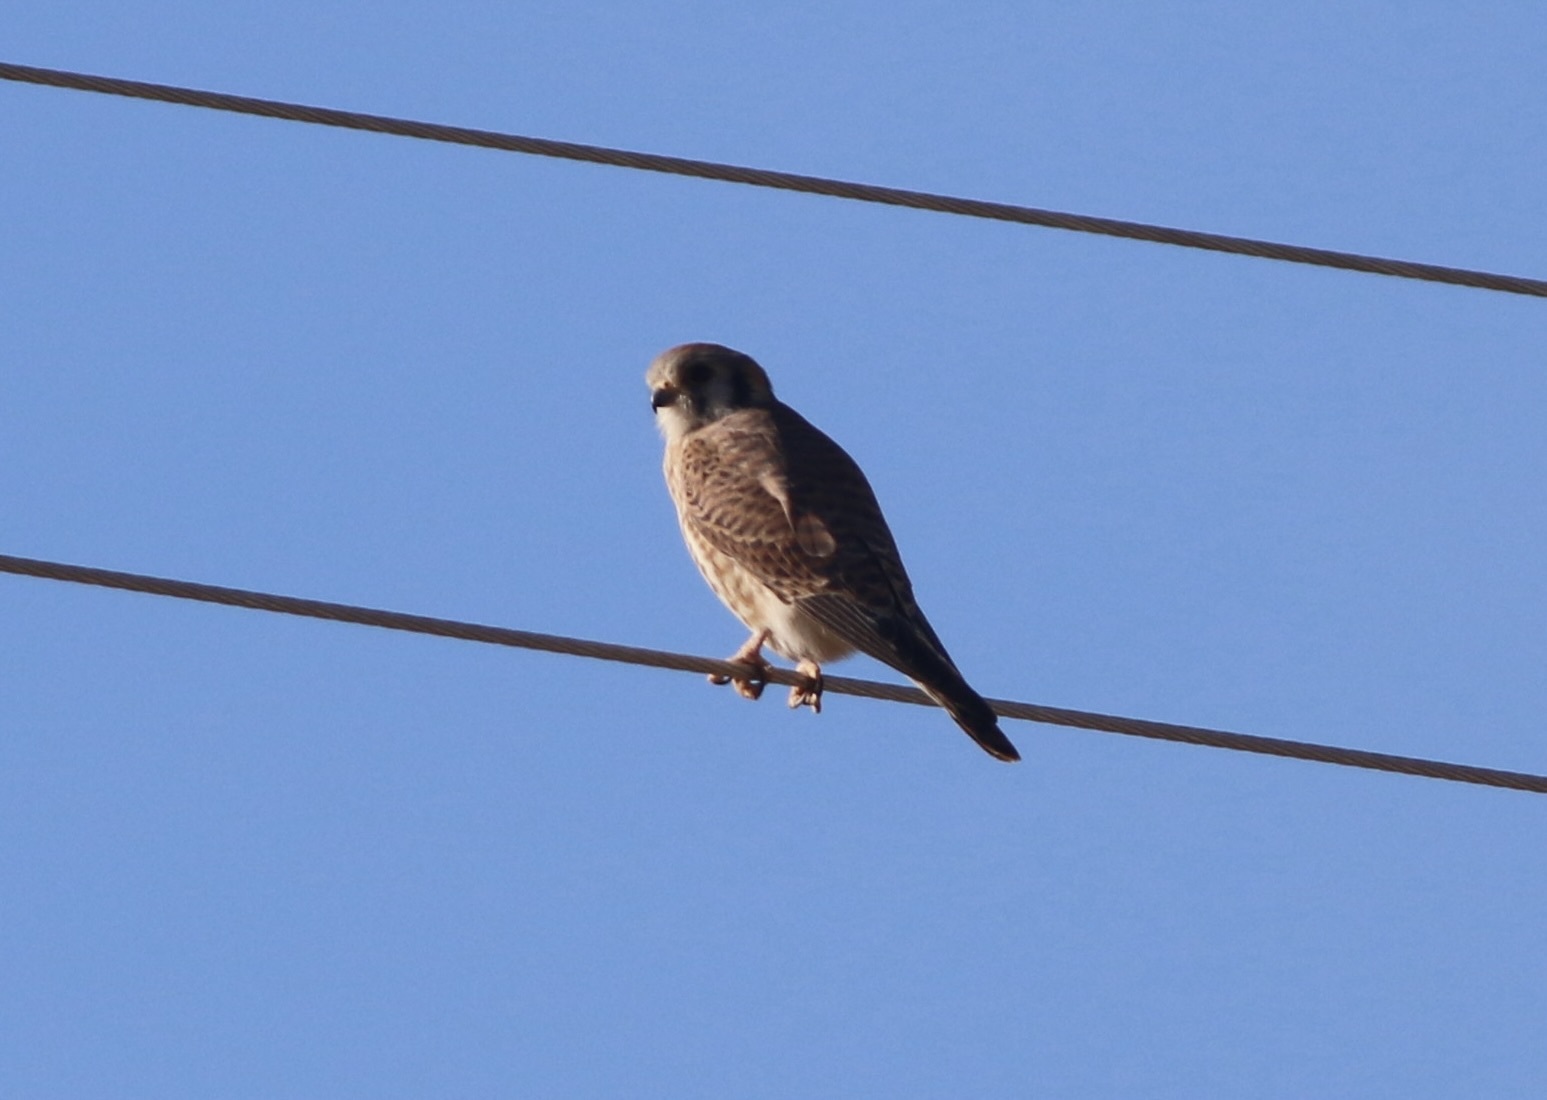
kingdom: Animalia
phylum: Chordata
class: Aves
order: Falconiformes
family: Falconidae
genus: Falco
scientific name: Falco sparverius
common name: American kestrel
